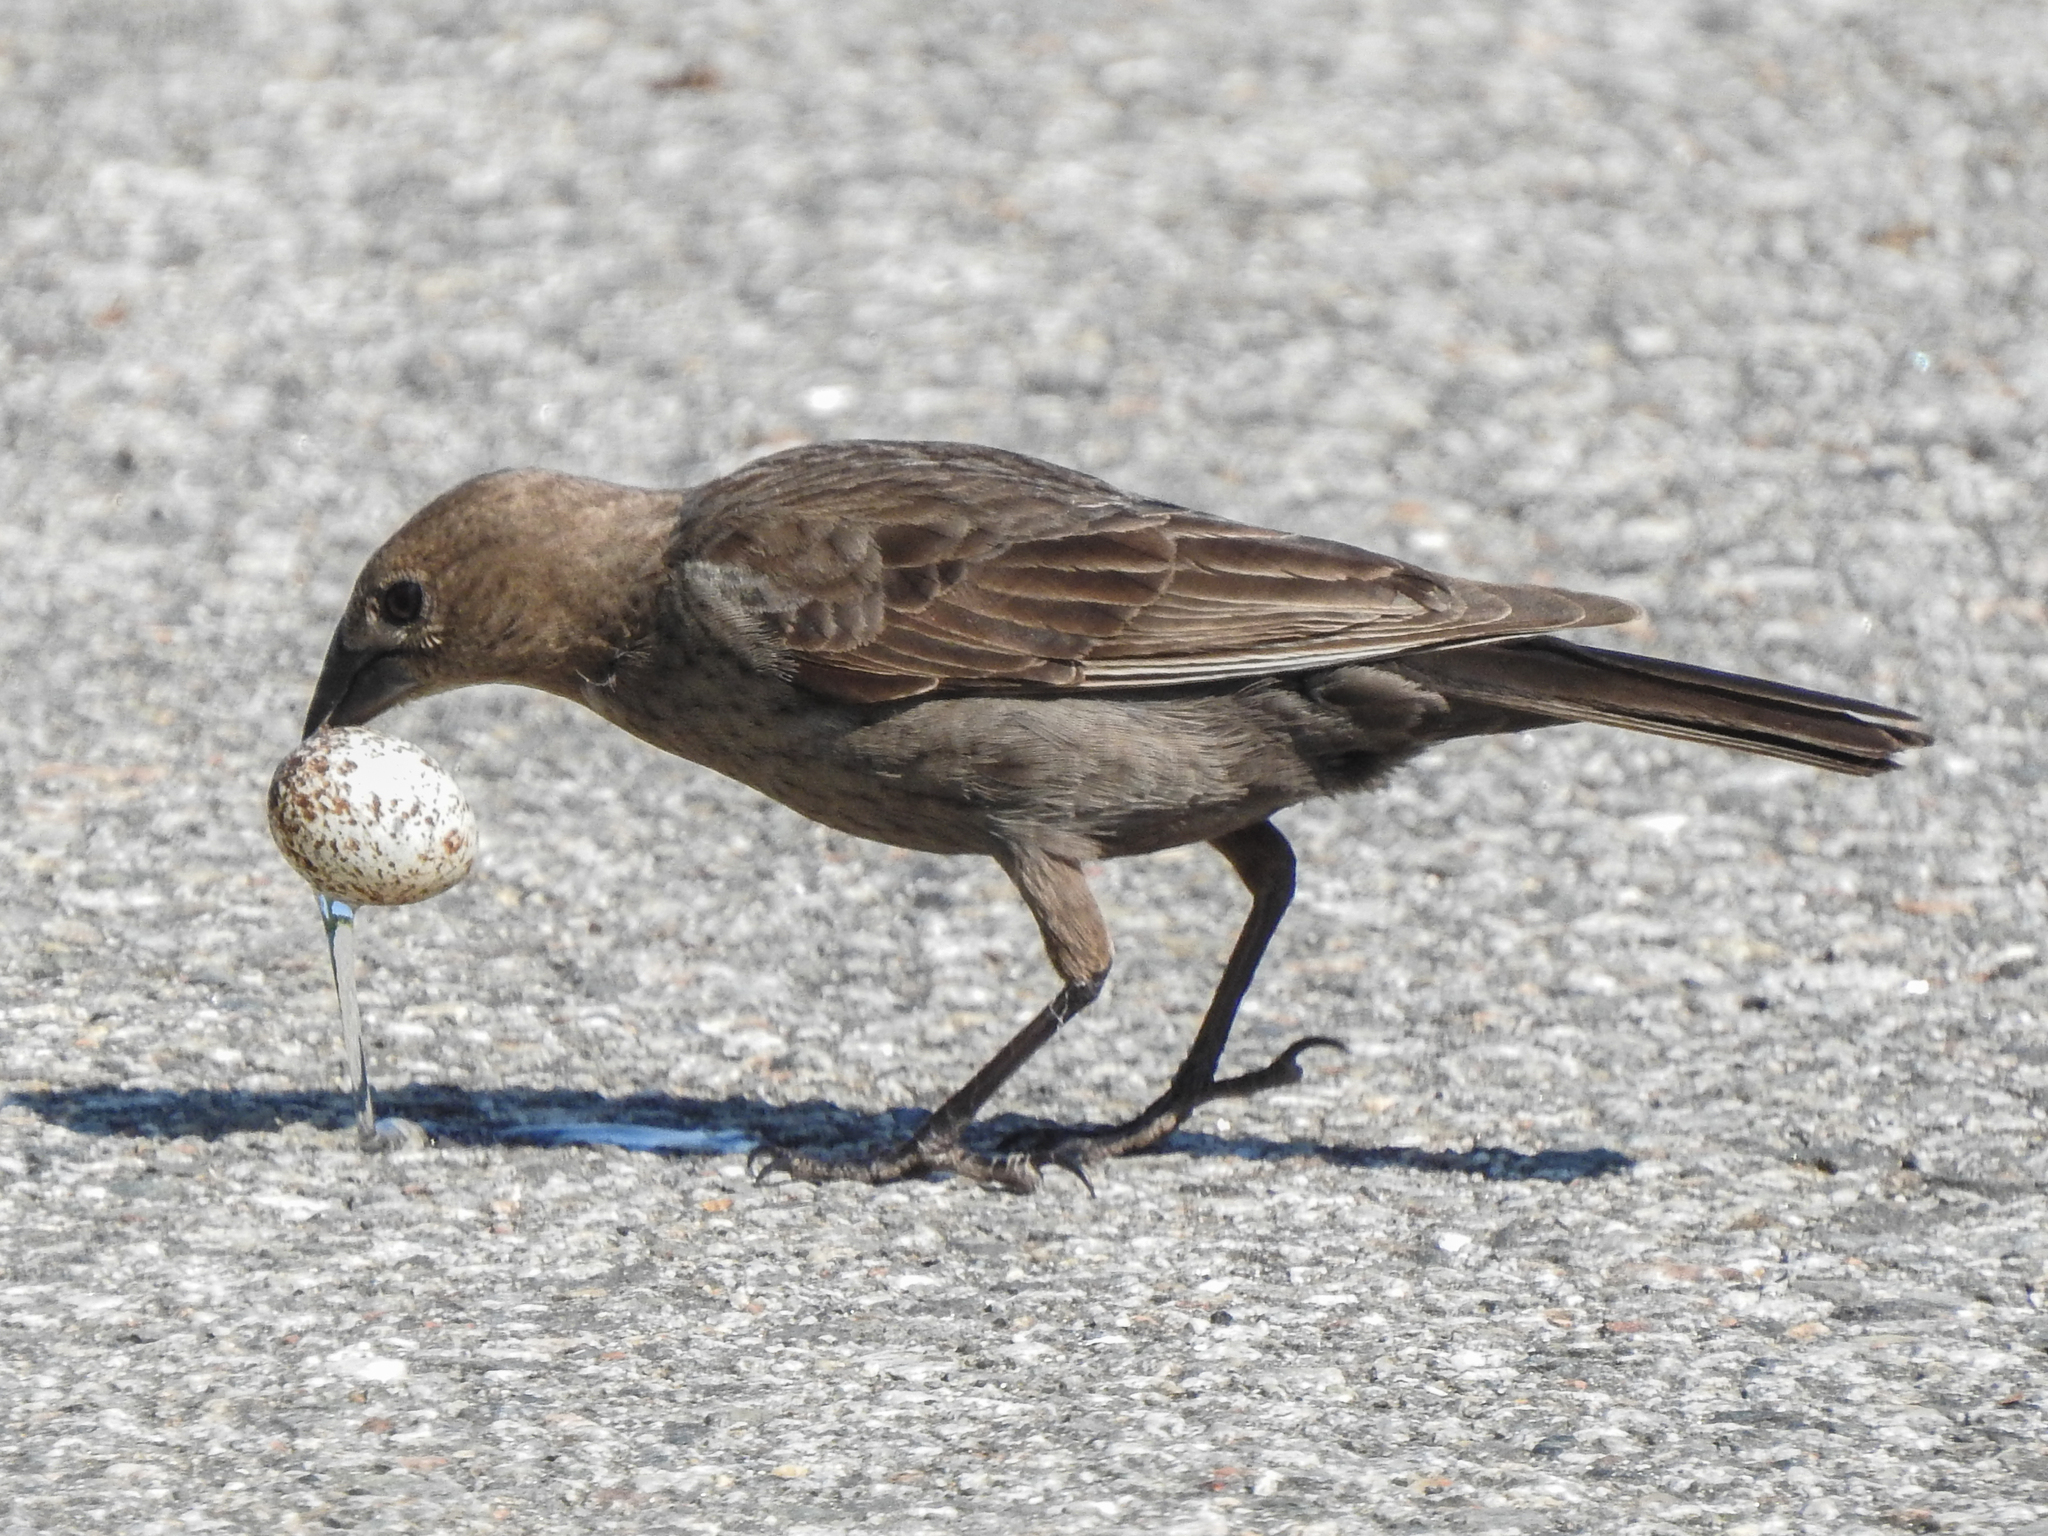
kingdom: Animalia
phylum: Chordata
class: Aves
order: Passeriformes
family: Icteridae
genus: Molothrus
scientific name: Molothrus ater
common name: Brown-headed cowbird
